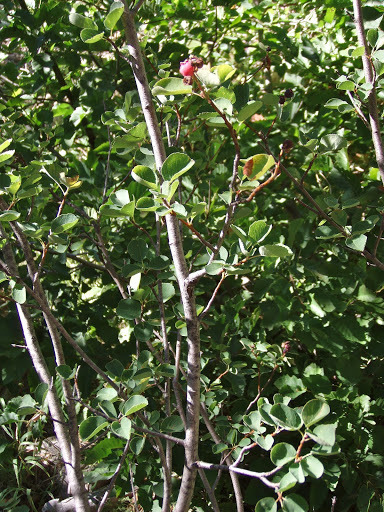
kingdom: Plantae
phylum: Tracheophyta
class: Magnoliopsida
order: Rosales
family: Rosaceae
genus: Amelanchier
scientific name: Amelanchier utahensis
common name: Utah serviceberry
